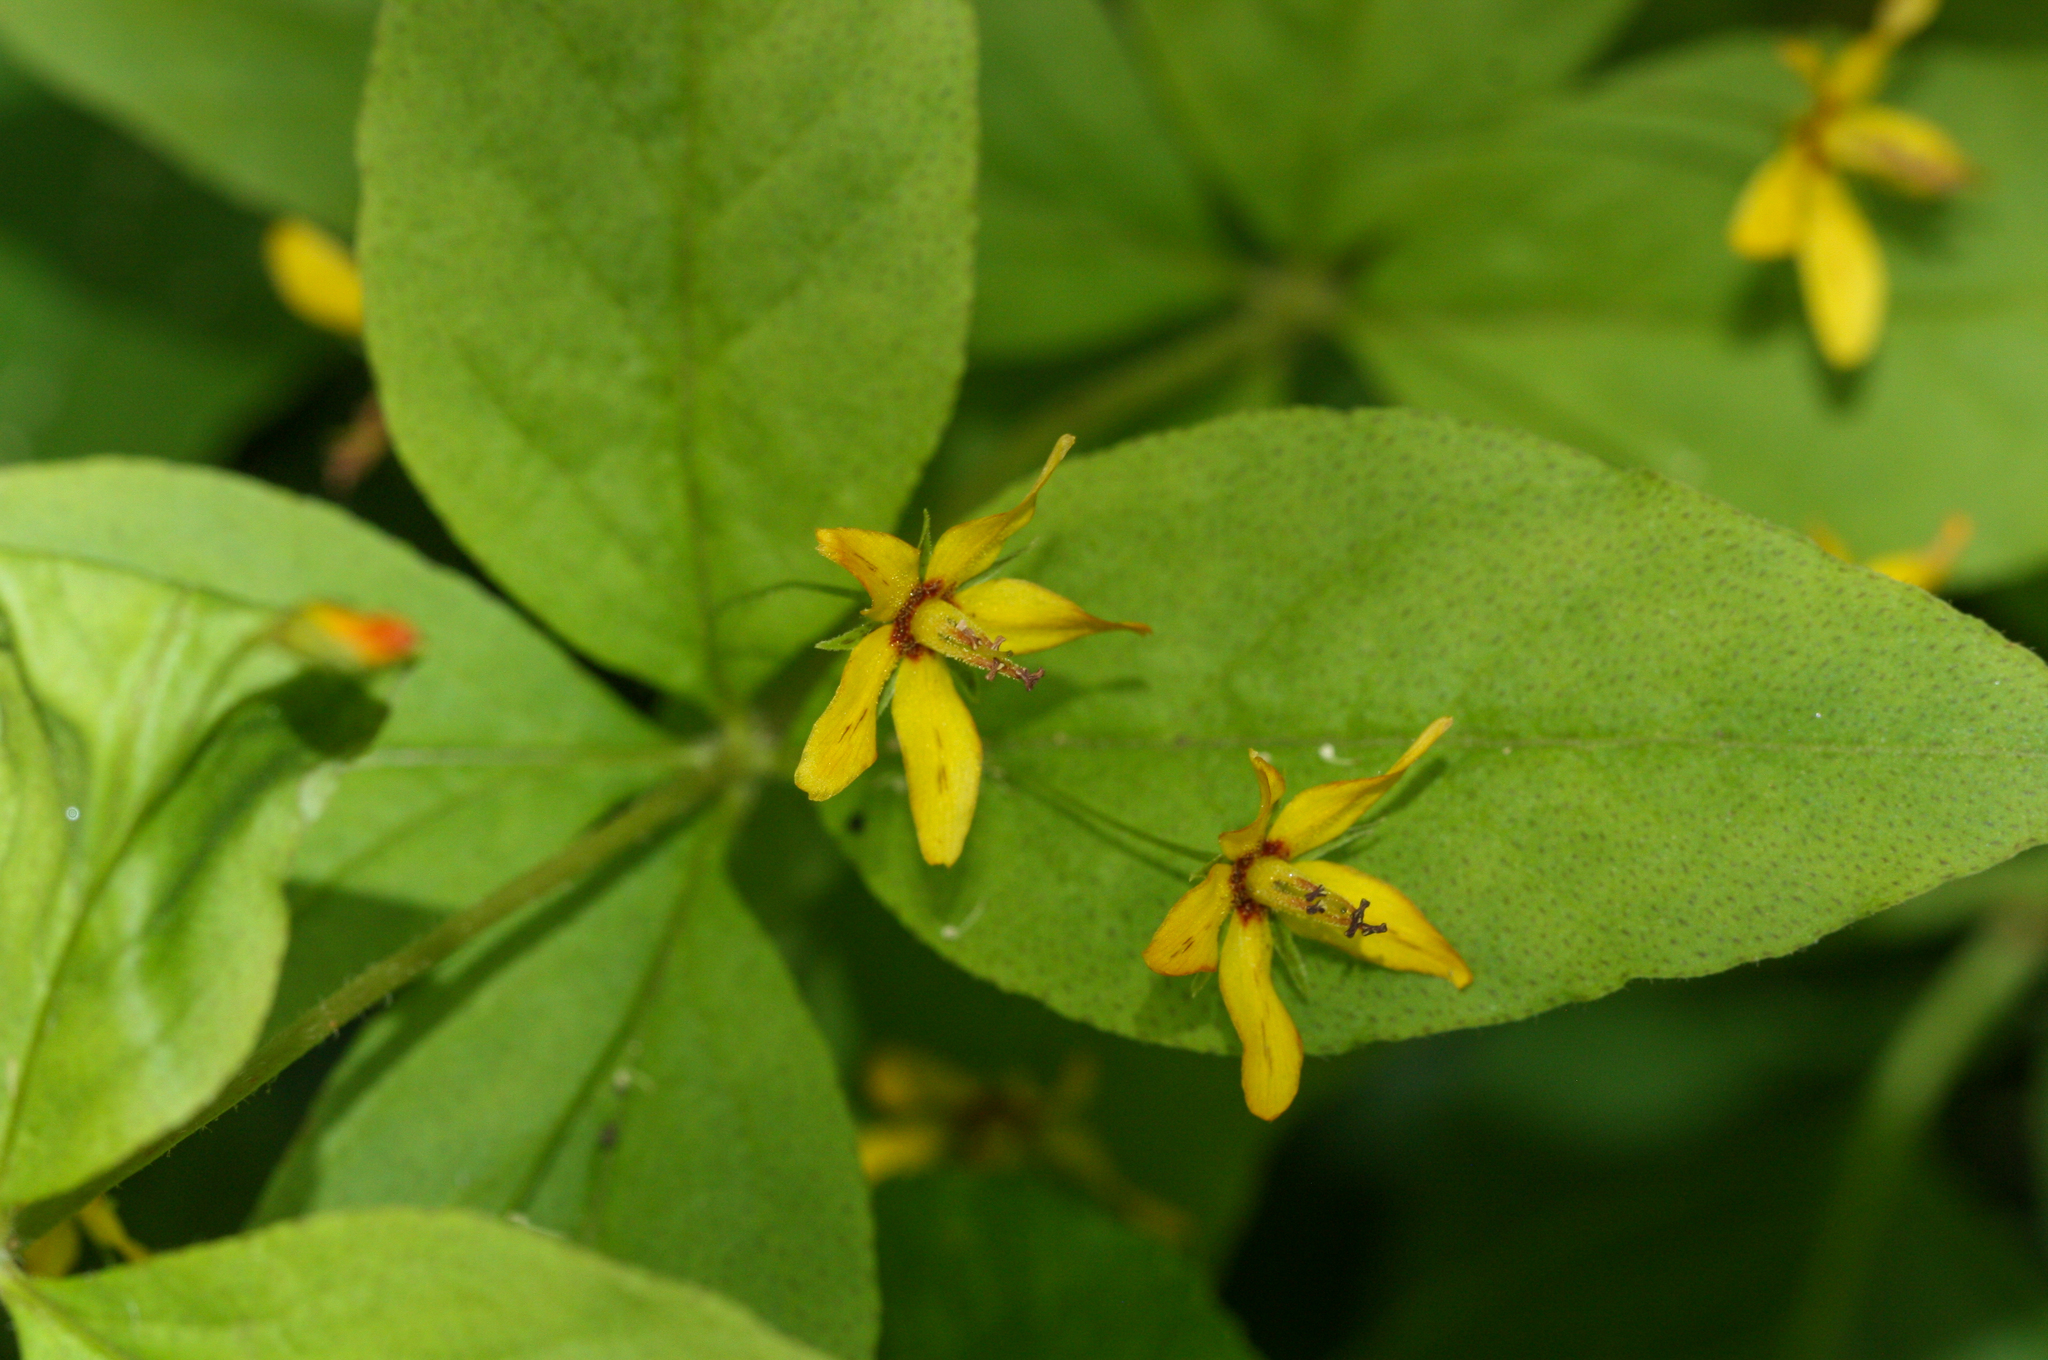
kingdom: Plantae
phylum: Tracheophyta
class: Magnoliopsida
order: Ericales
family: Primulaceae
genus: Lysimachia
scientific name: Lysimachia quadrifolia
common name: Whorled loosestrife
